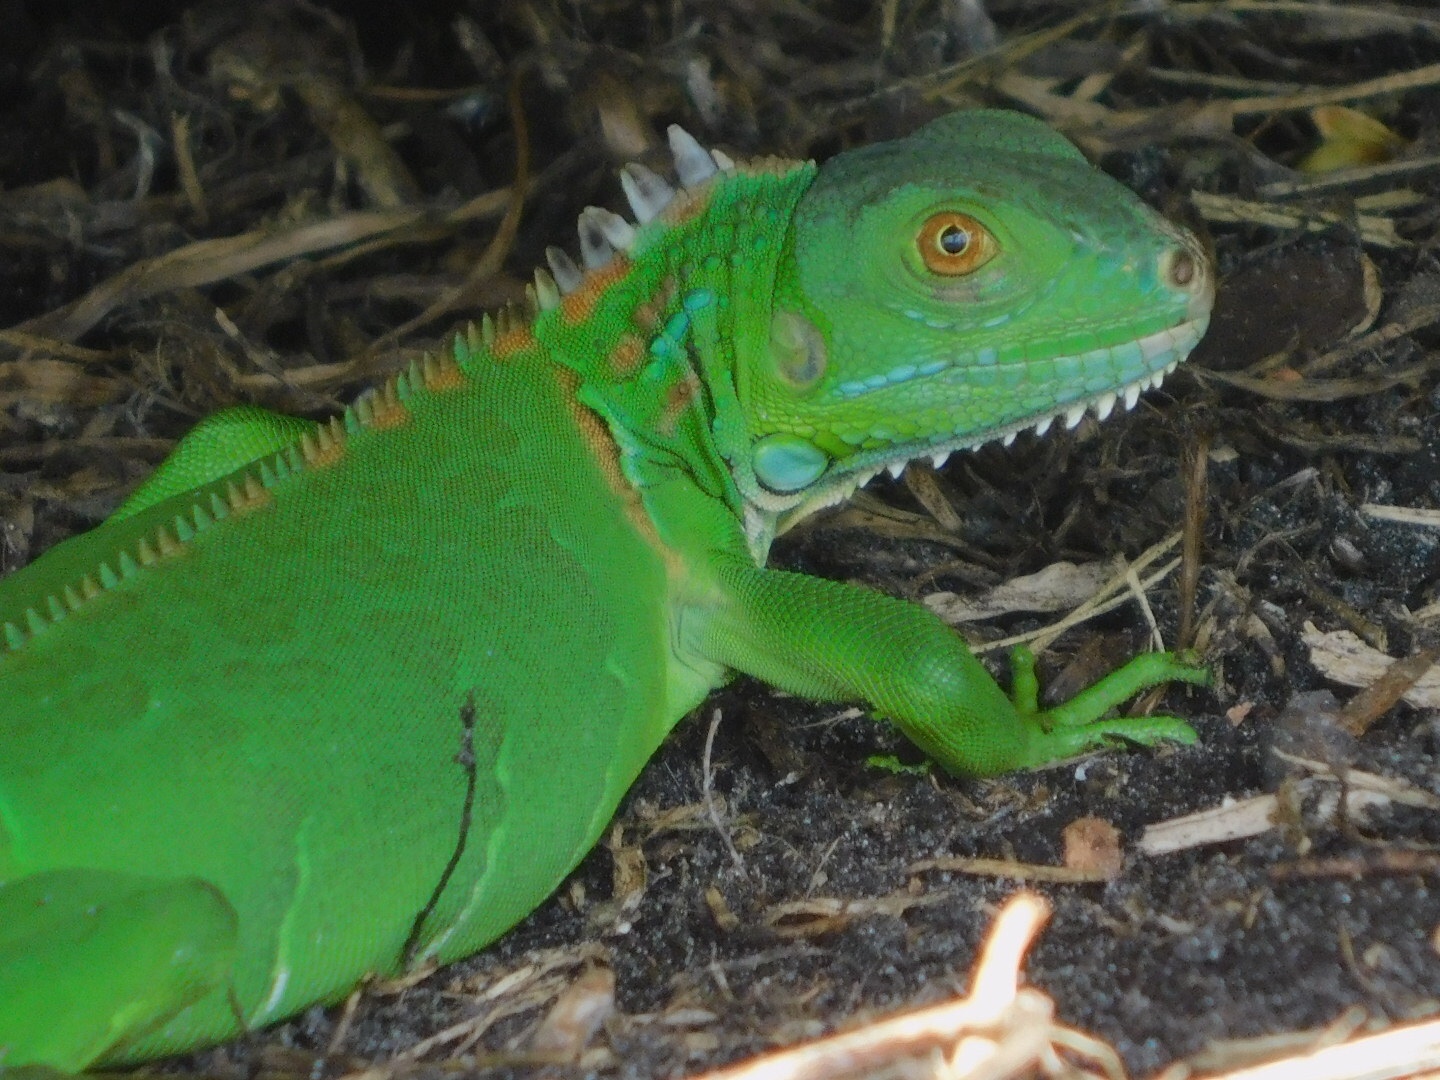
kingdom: Animalia
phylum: Chordata
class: Squamata
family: Iguanidae
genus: Iguana
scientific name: Iguana iguana
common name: Green iguana
